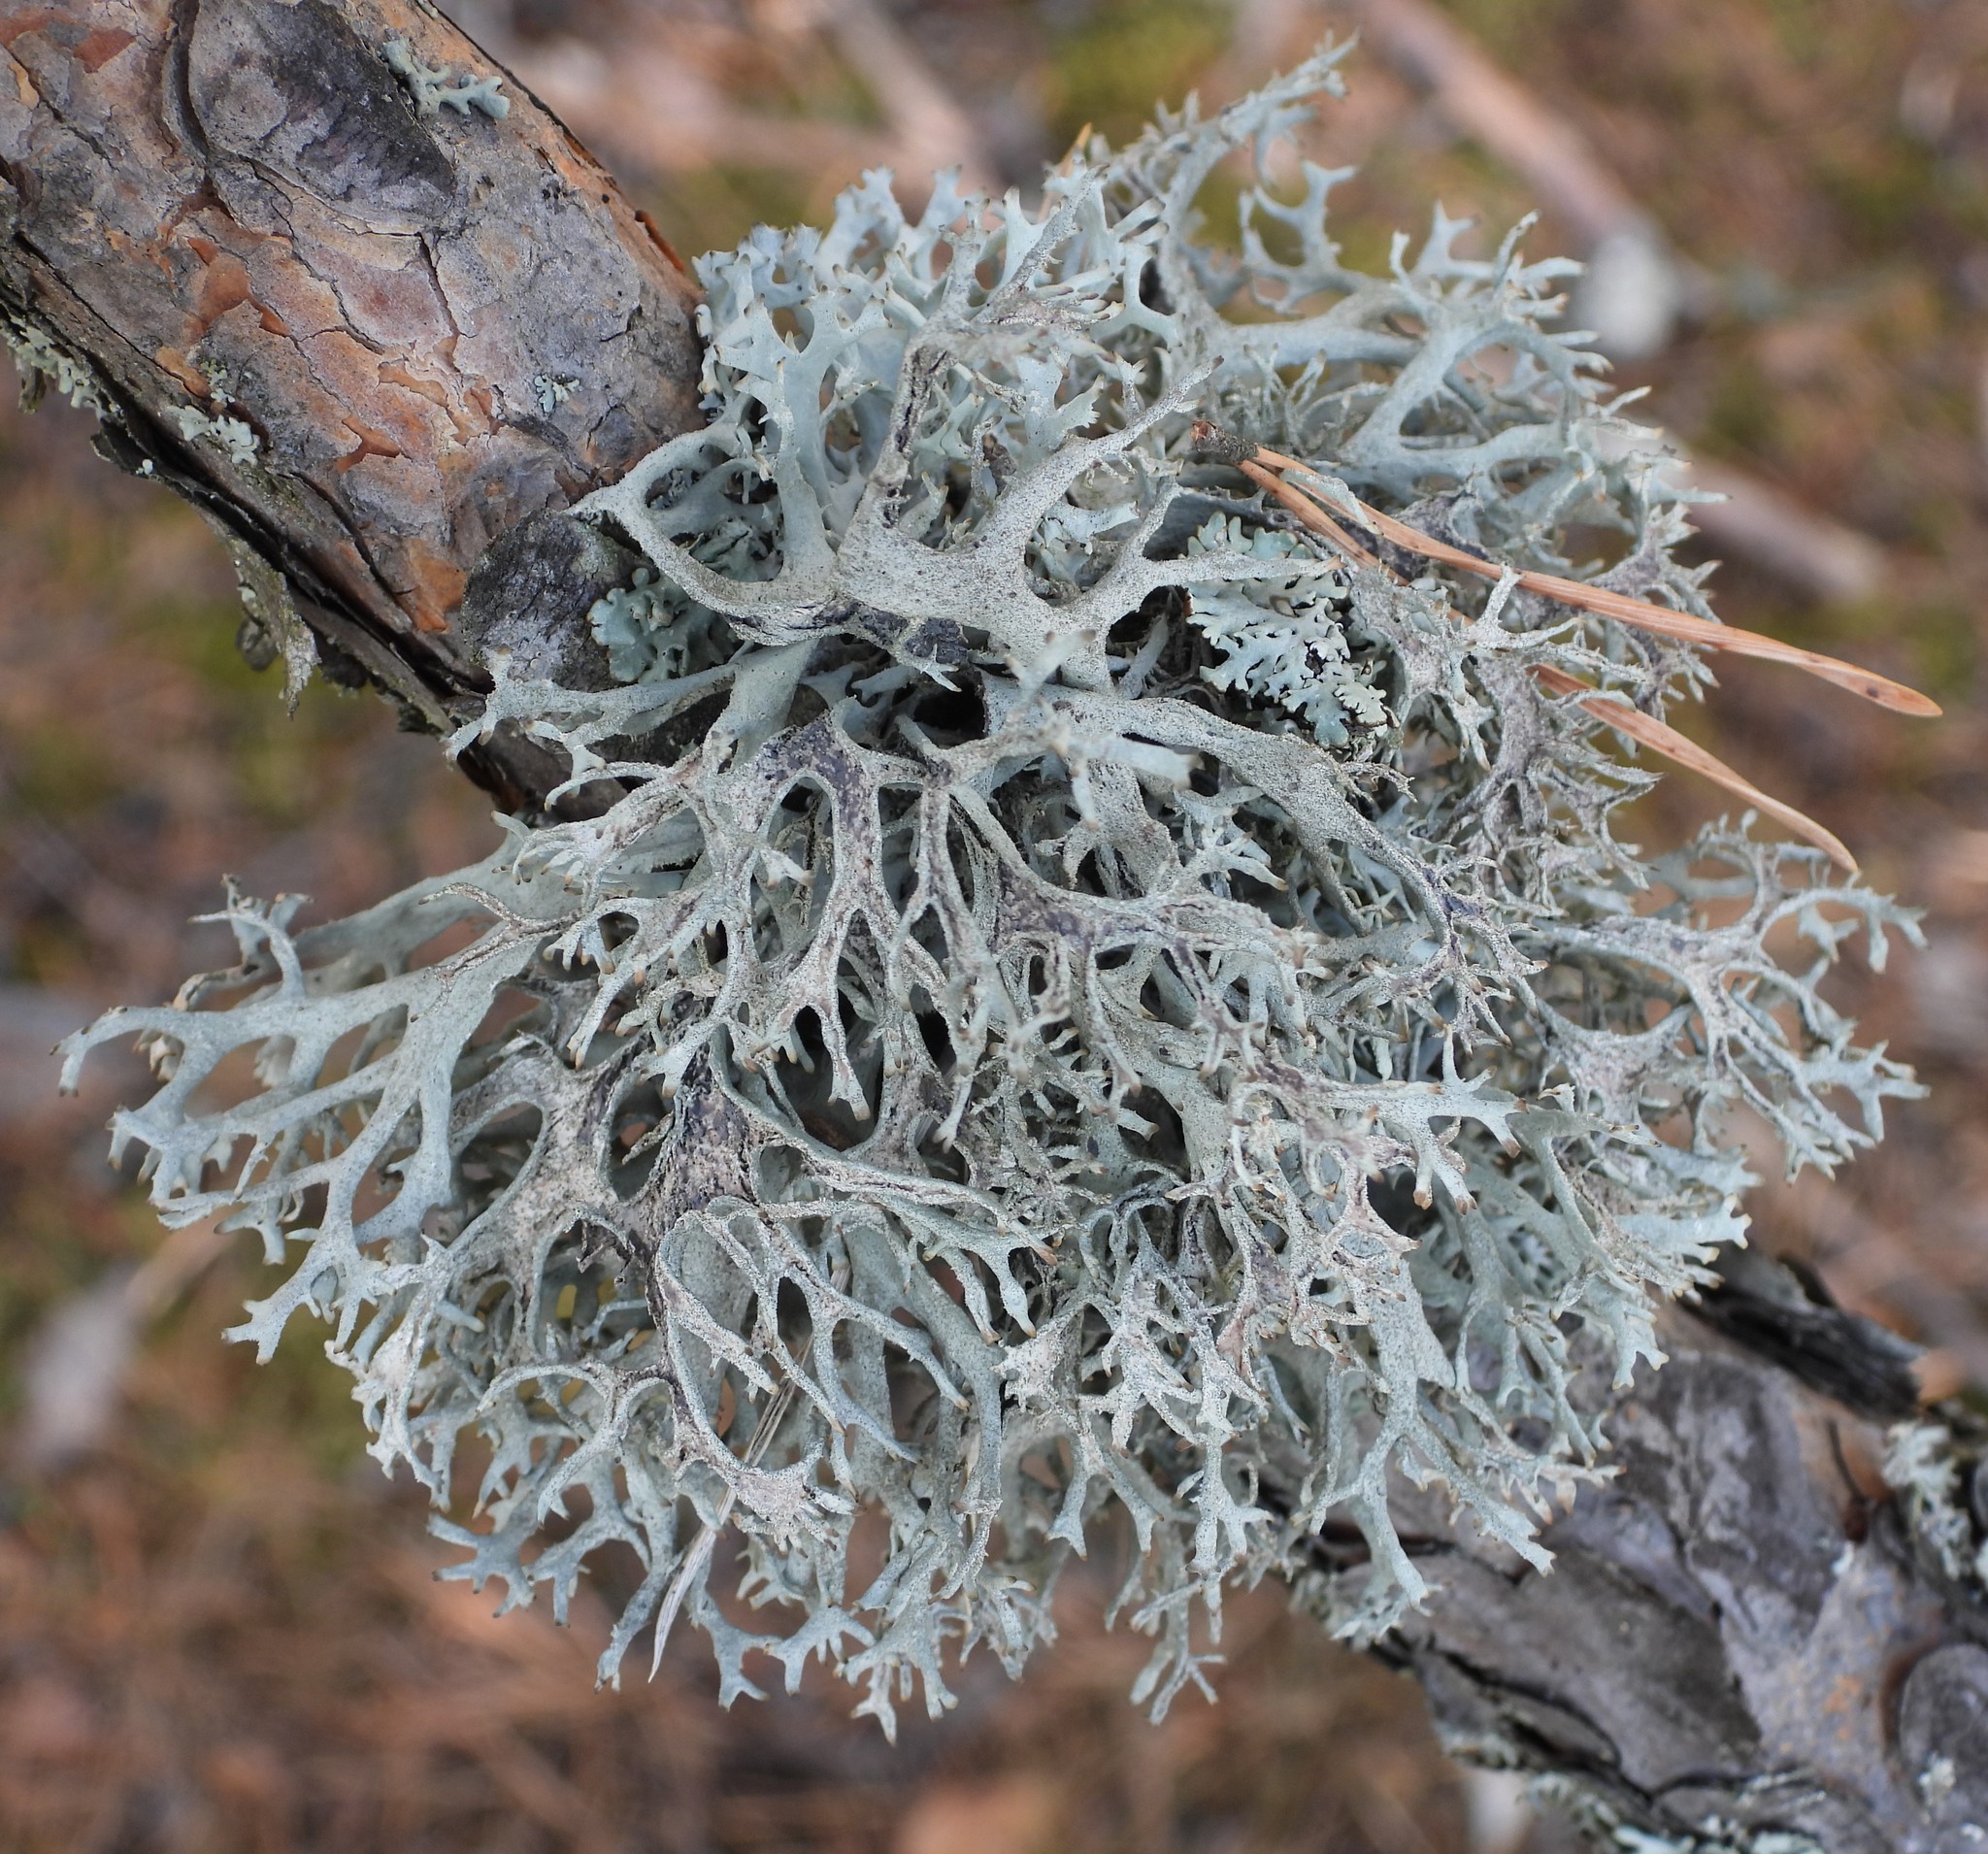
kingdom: Fungi
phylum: Ascomycota
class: Lecanoromycetes
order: Lecanorales
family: Parmeliaceae
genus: Pseudevernia
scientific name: Pseudevernia furfuracea
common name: Tree moss
